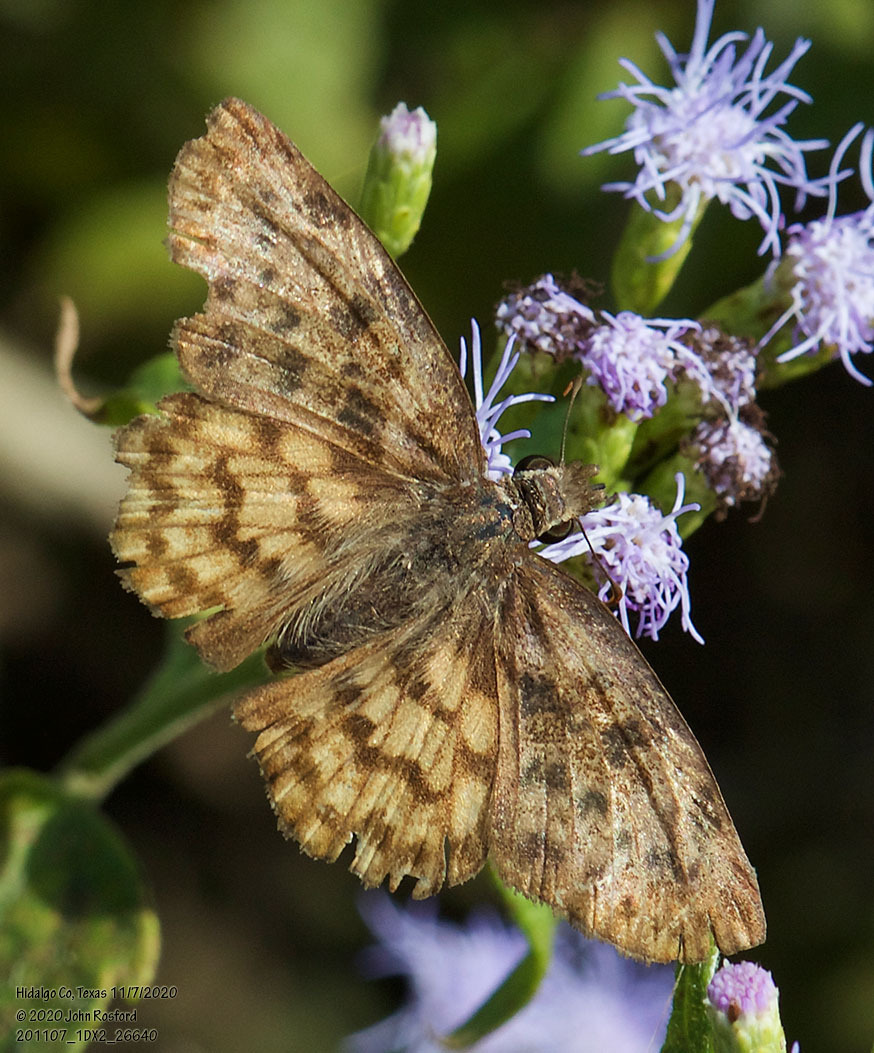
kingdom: Animalia
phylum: Arthropoda
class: Insecta
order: Lepidoptera
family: Hesperiidae
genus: Timochares
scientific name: Timochares ruptifasciata
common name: Brown-banded skipper
